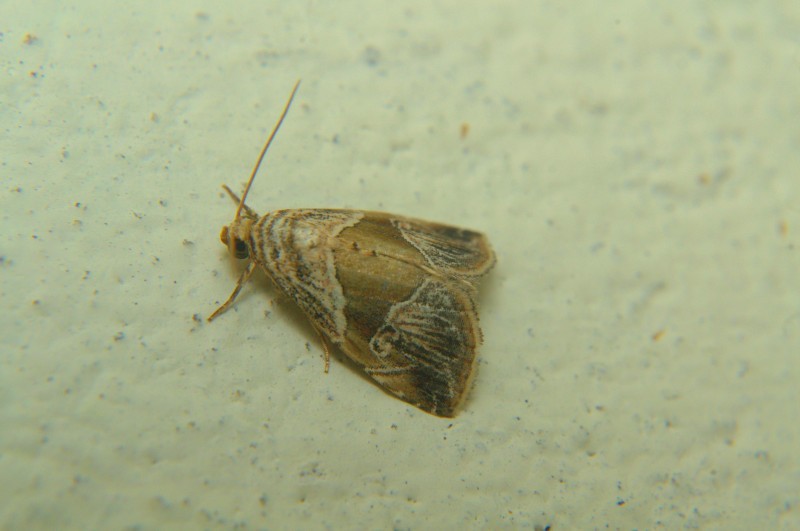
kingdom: Animalia
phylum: Arthropoda
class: Insecta
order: Lepidoptera
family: Noctuidae
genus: Maliattha
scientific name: Maliattha separata
